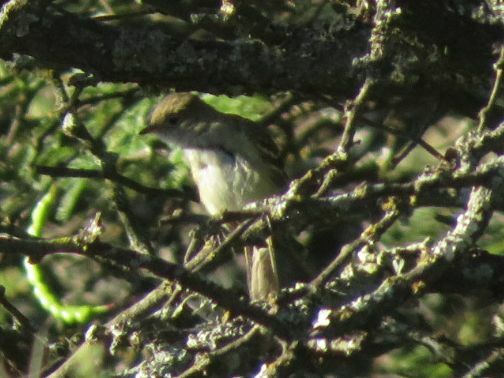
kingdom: Animalia
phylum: Chordata
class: Aves
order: Passeriformes
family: Tyrannidae
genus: Elaenia
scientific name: Elaenia parvirostris
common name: Small-billed elaenia
